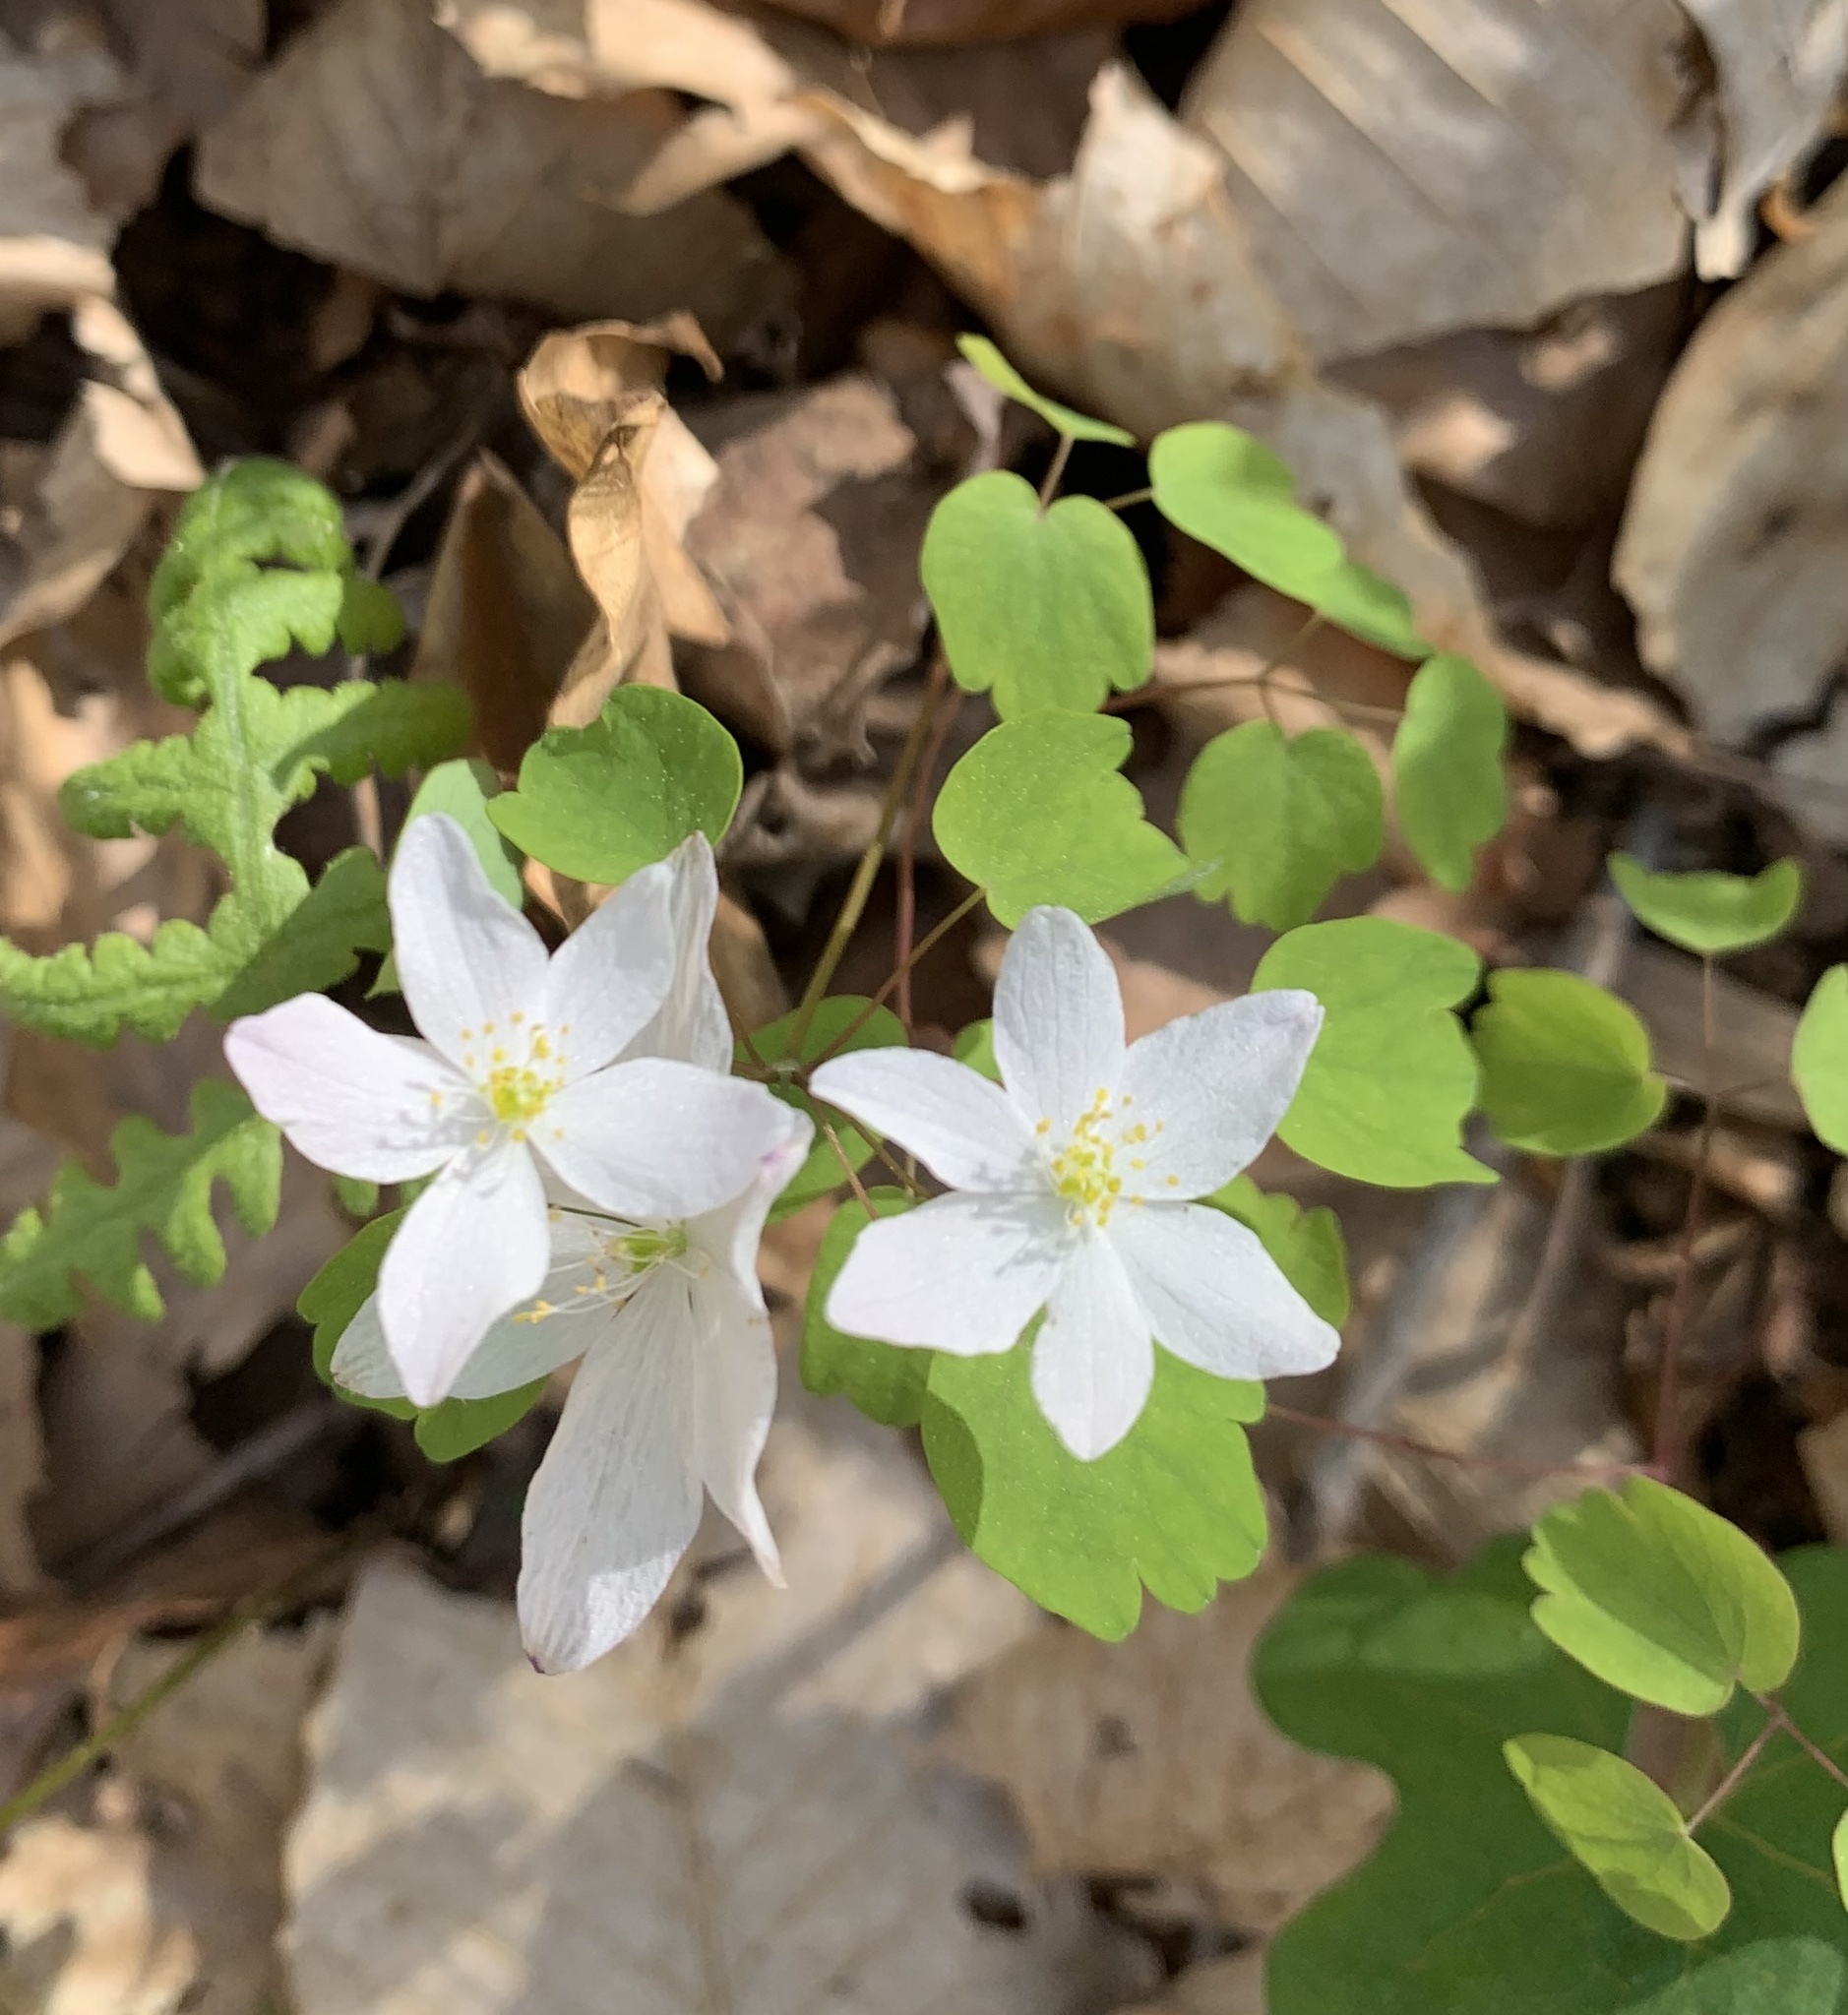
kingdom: Plantae
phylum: Tracheophyta
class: Magnoliopsida
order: Ranunculales
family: Ranunculaceae
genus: Thalictrum
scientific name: Thalictrum thalictroides
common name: Rue-anemone
